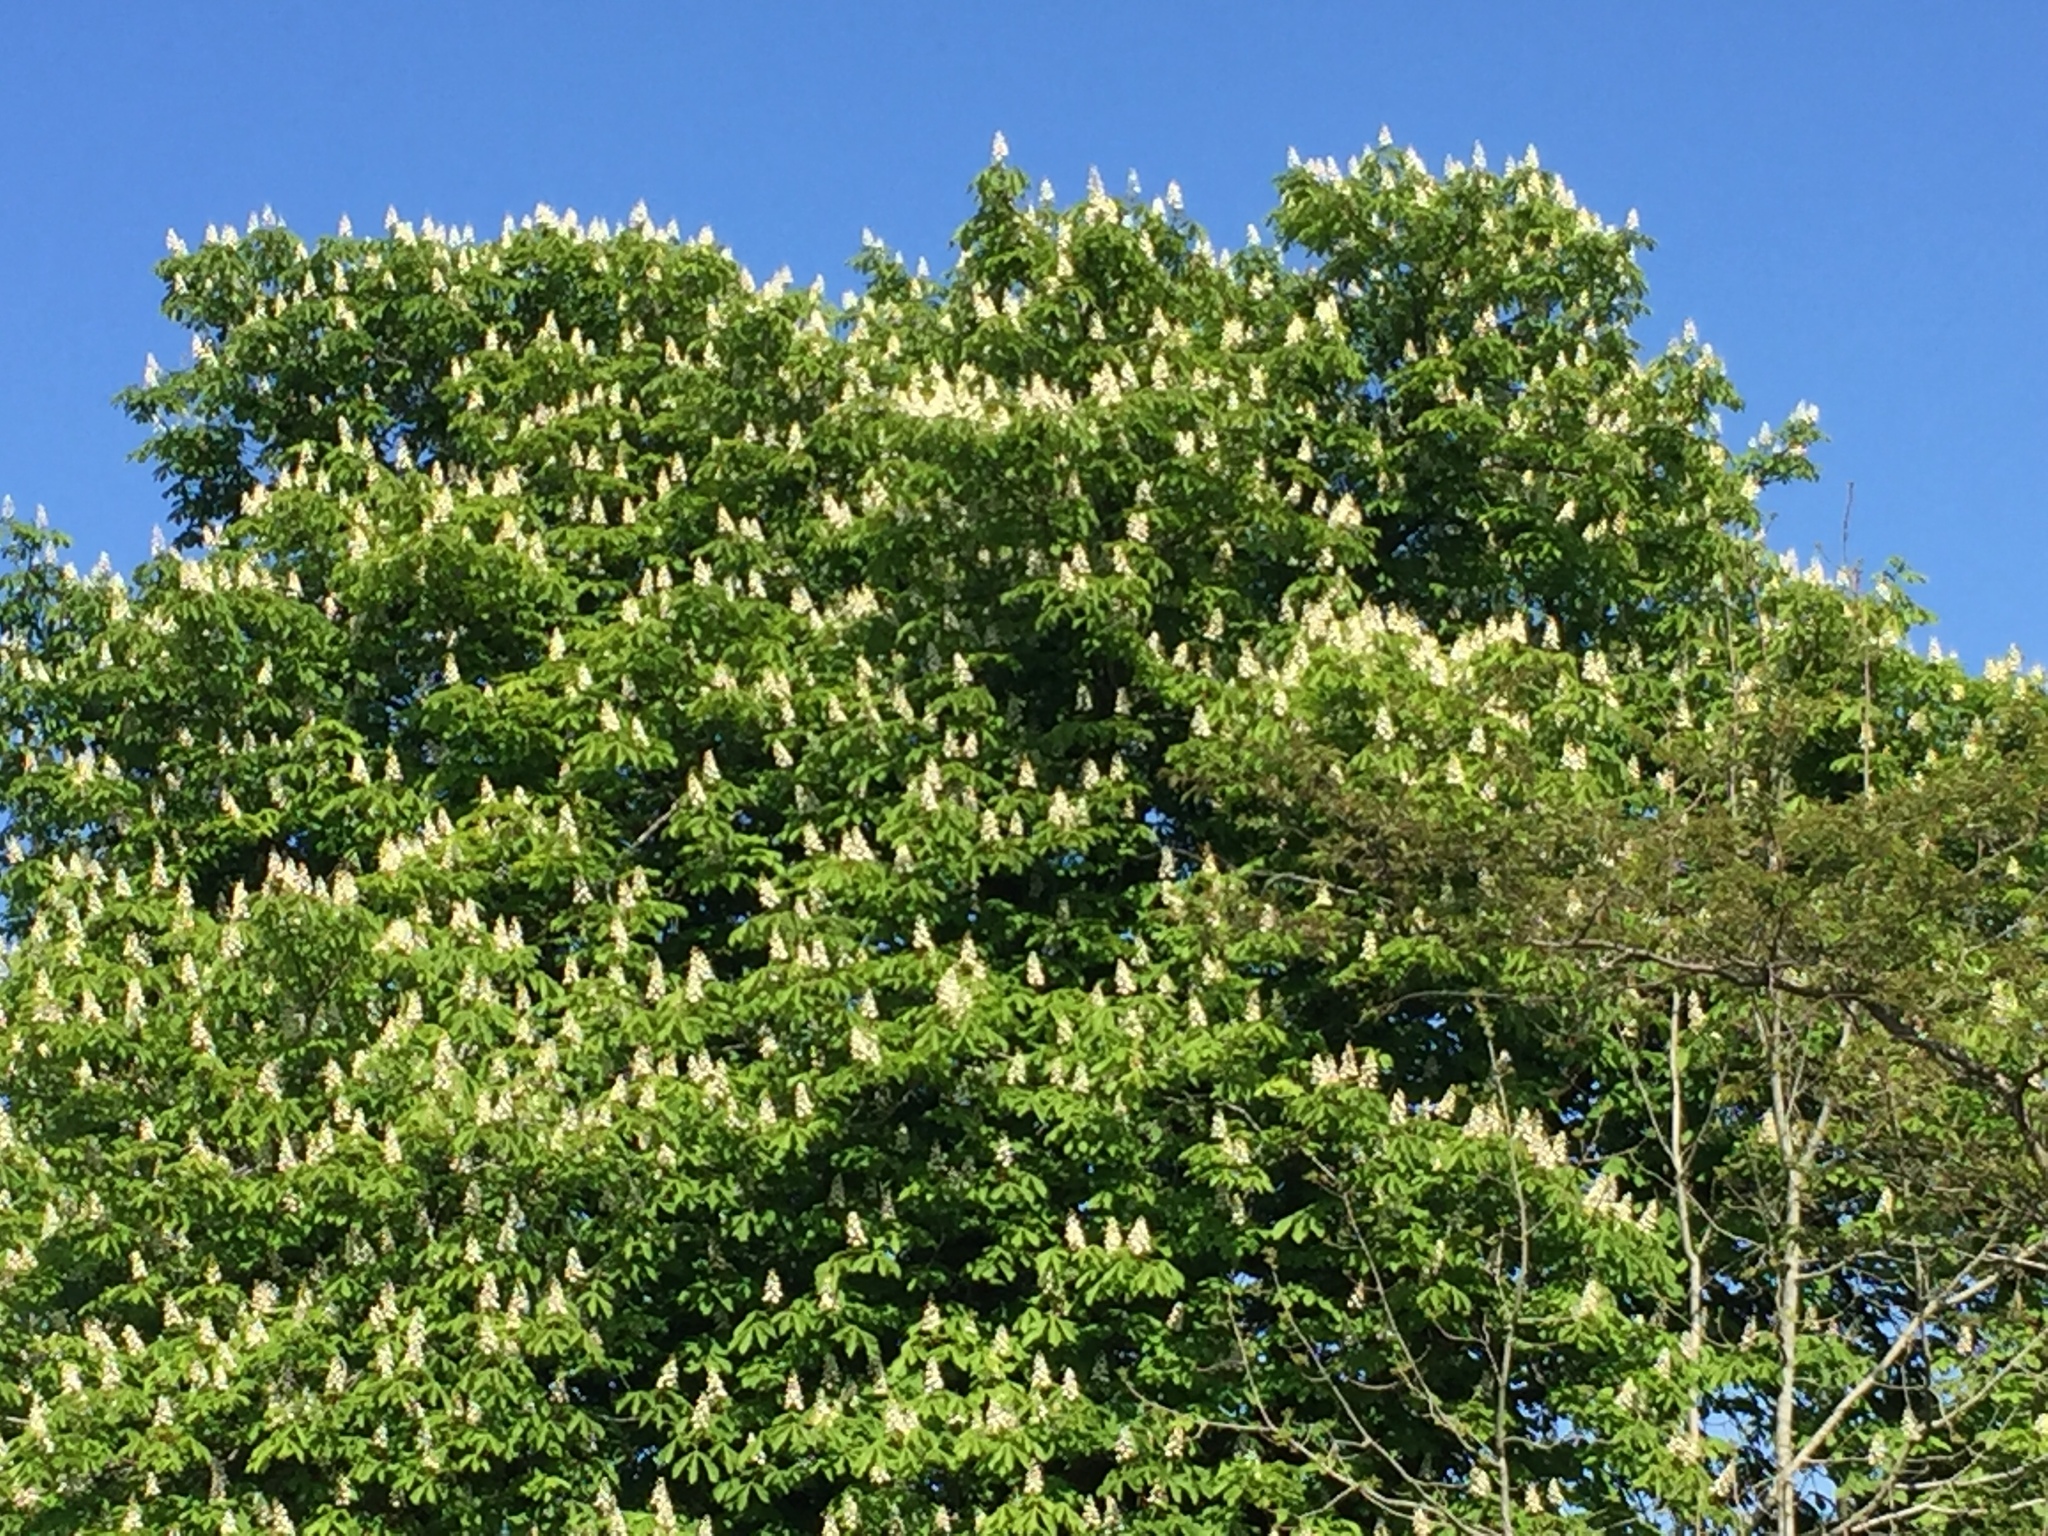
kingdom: Plantae
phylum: Tracheophyta
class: Magnoliopsida
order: Sapindales
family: Sapindaceae
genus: Aesculus
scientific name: Aesculus hippocastanum
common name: Horse-chestnut
